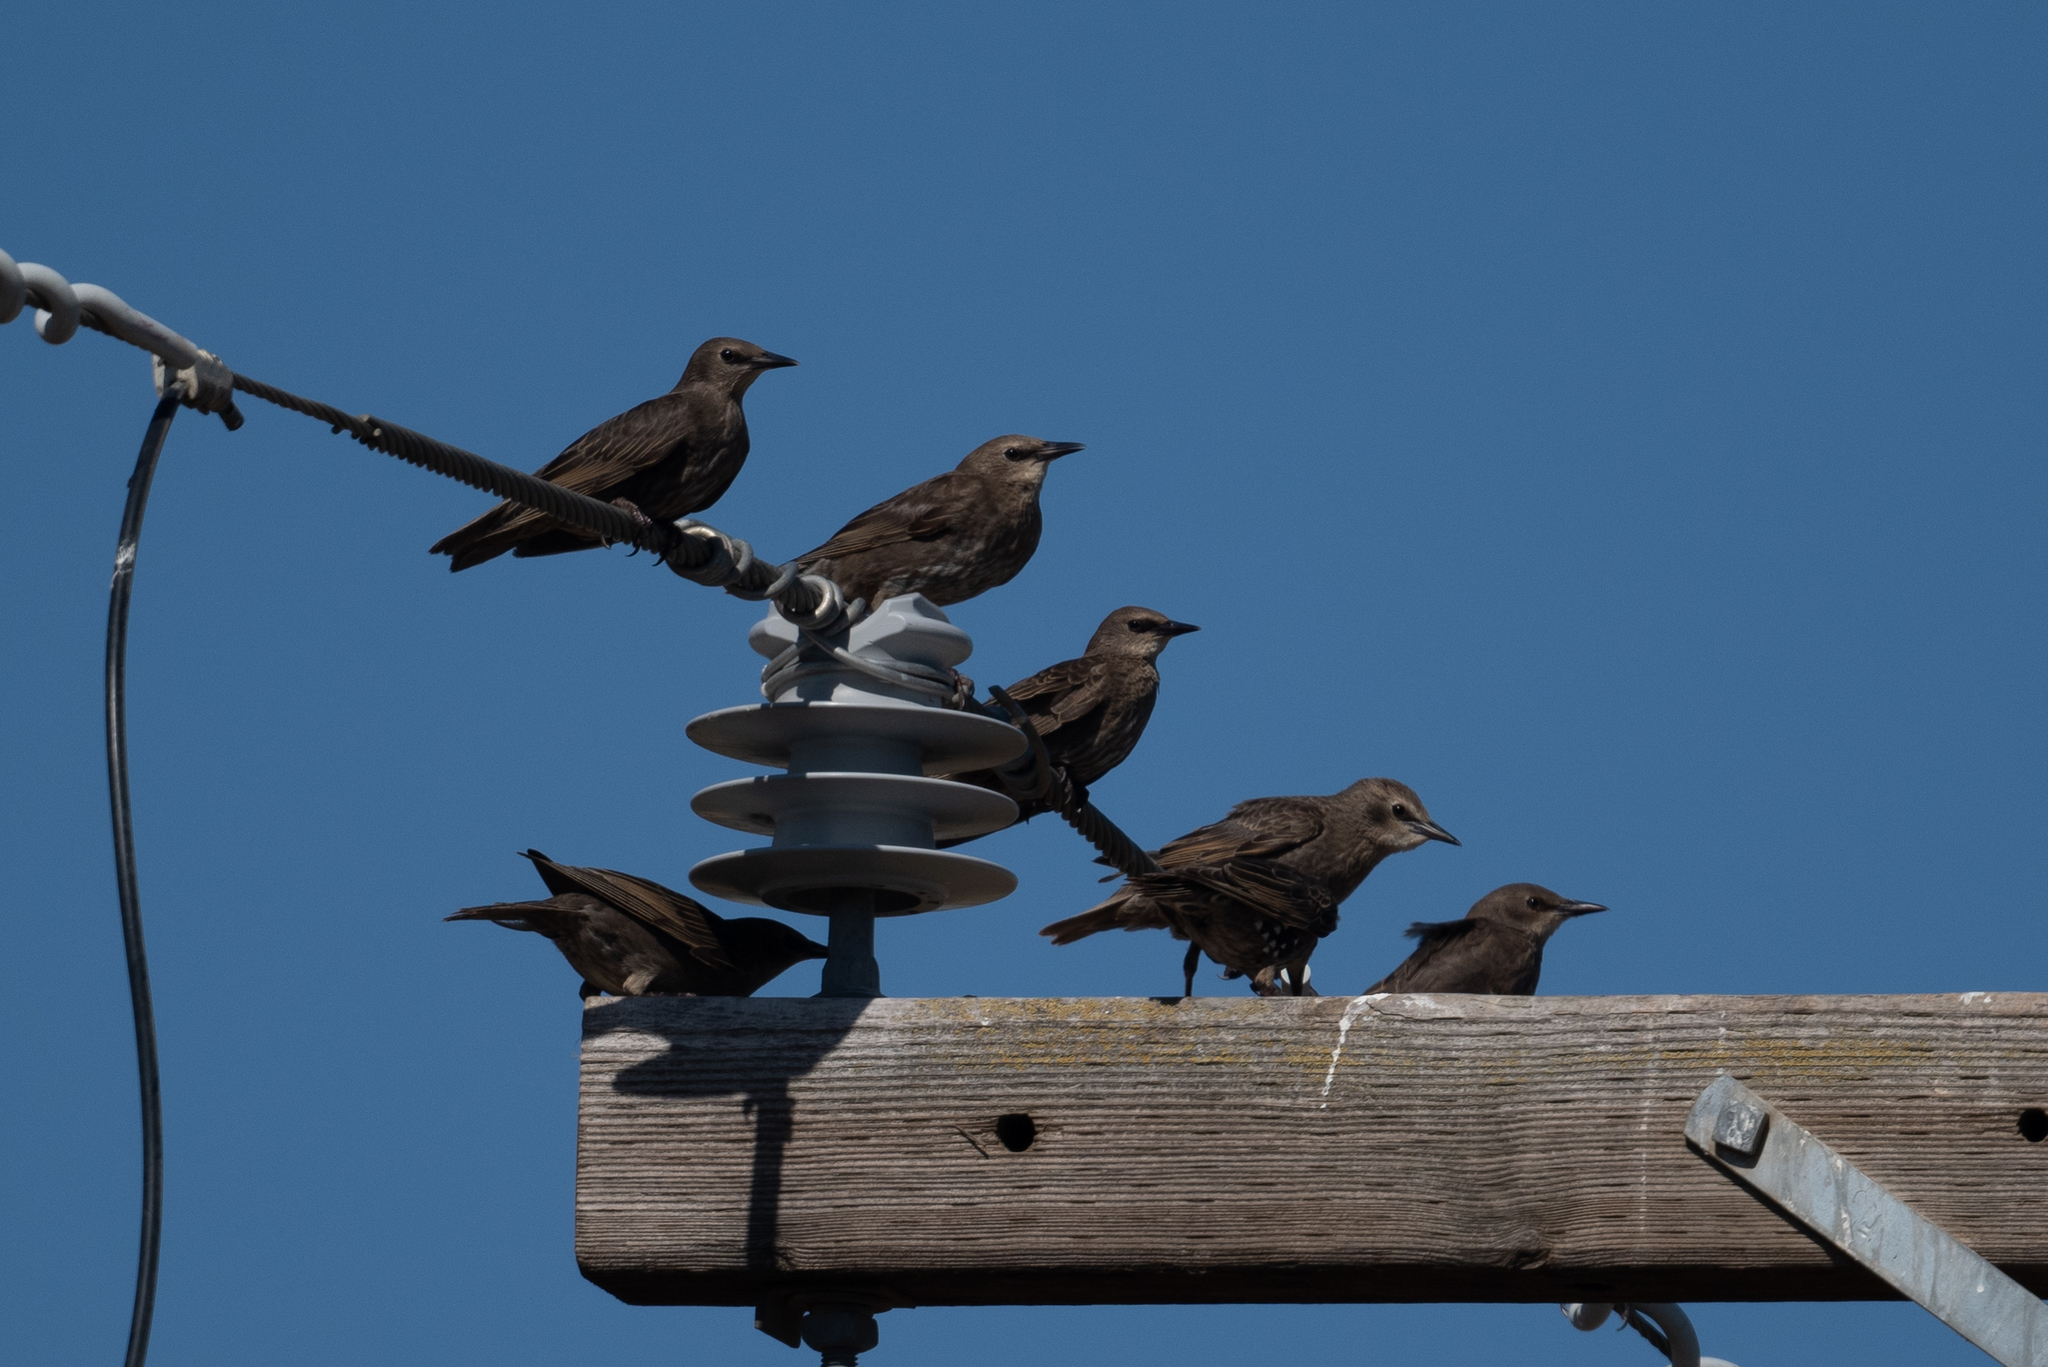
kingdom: Animalia
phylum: Chordata
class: Aves
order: Passeriformes
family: Sturnidae
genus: Sturnus
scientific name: Sturnus vulgaris
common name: Common starling
